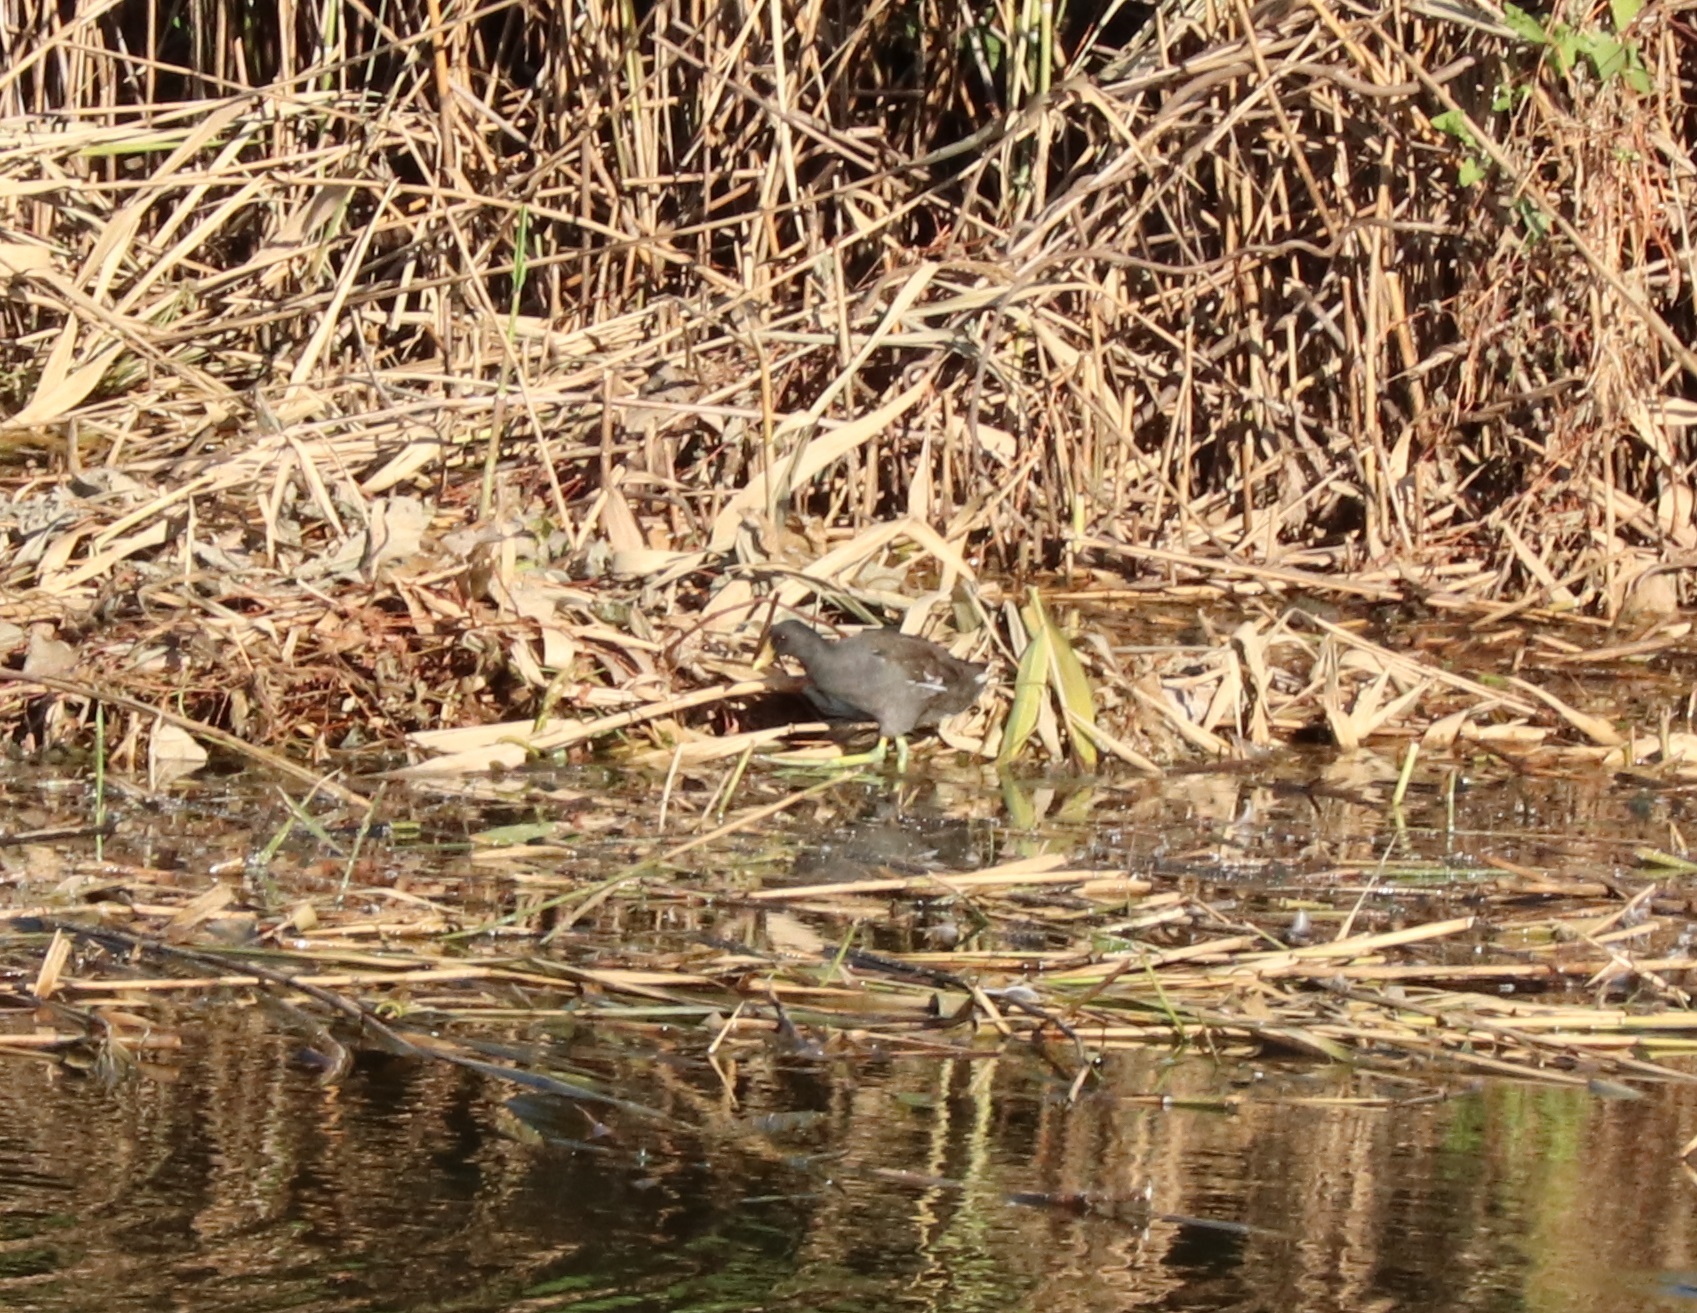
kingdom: Animalia
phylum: Chordata
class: Aves
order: Gruiformes
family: Rallidae
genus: Gallinula
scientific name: Gallinula chloropus
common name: Common moorhen
